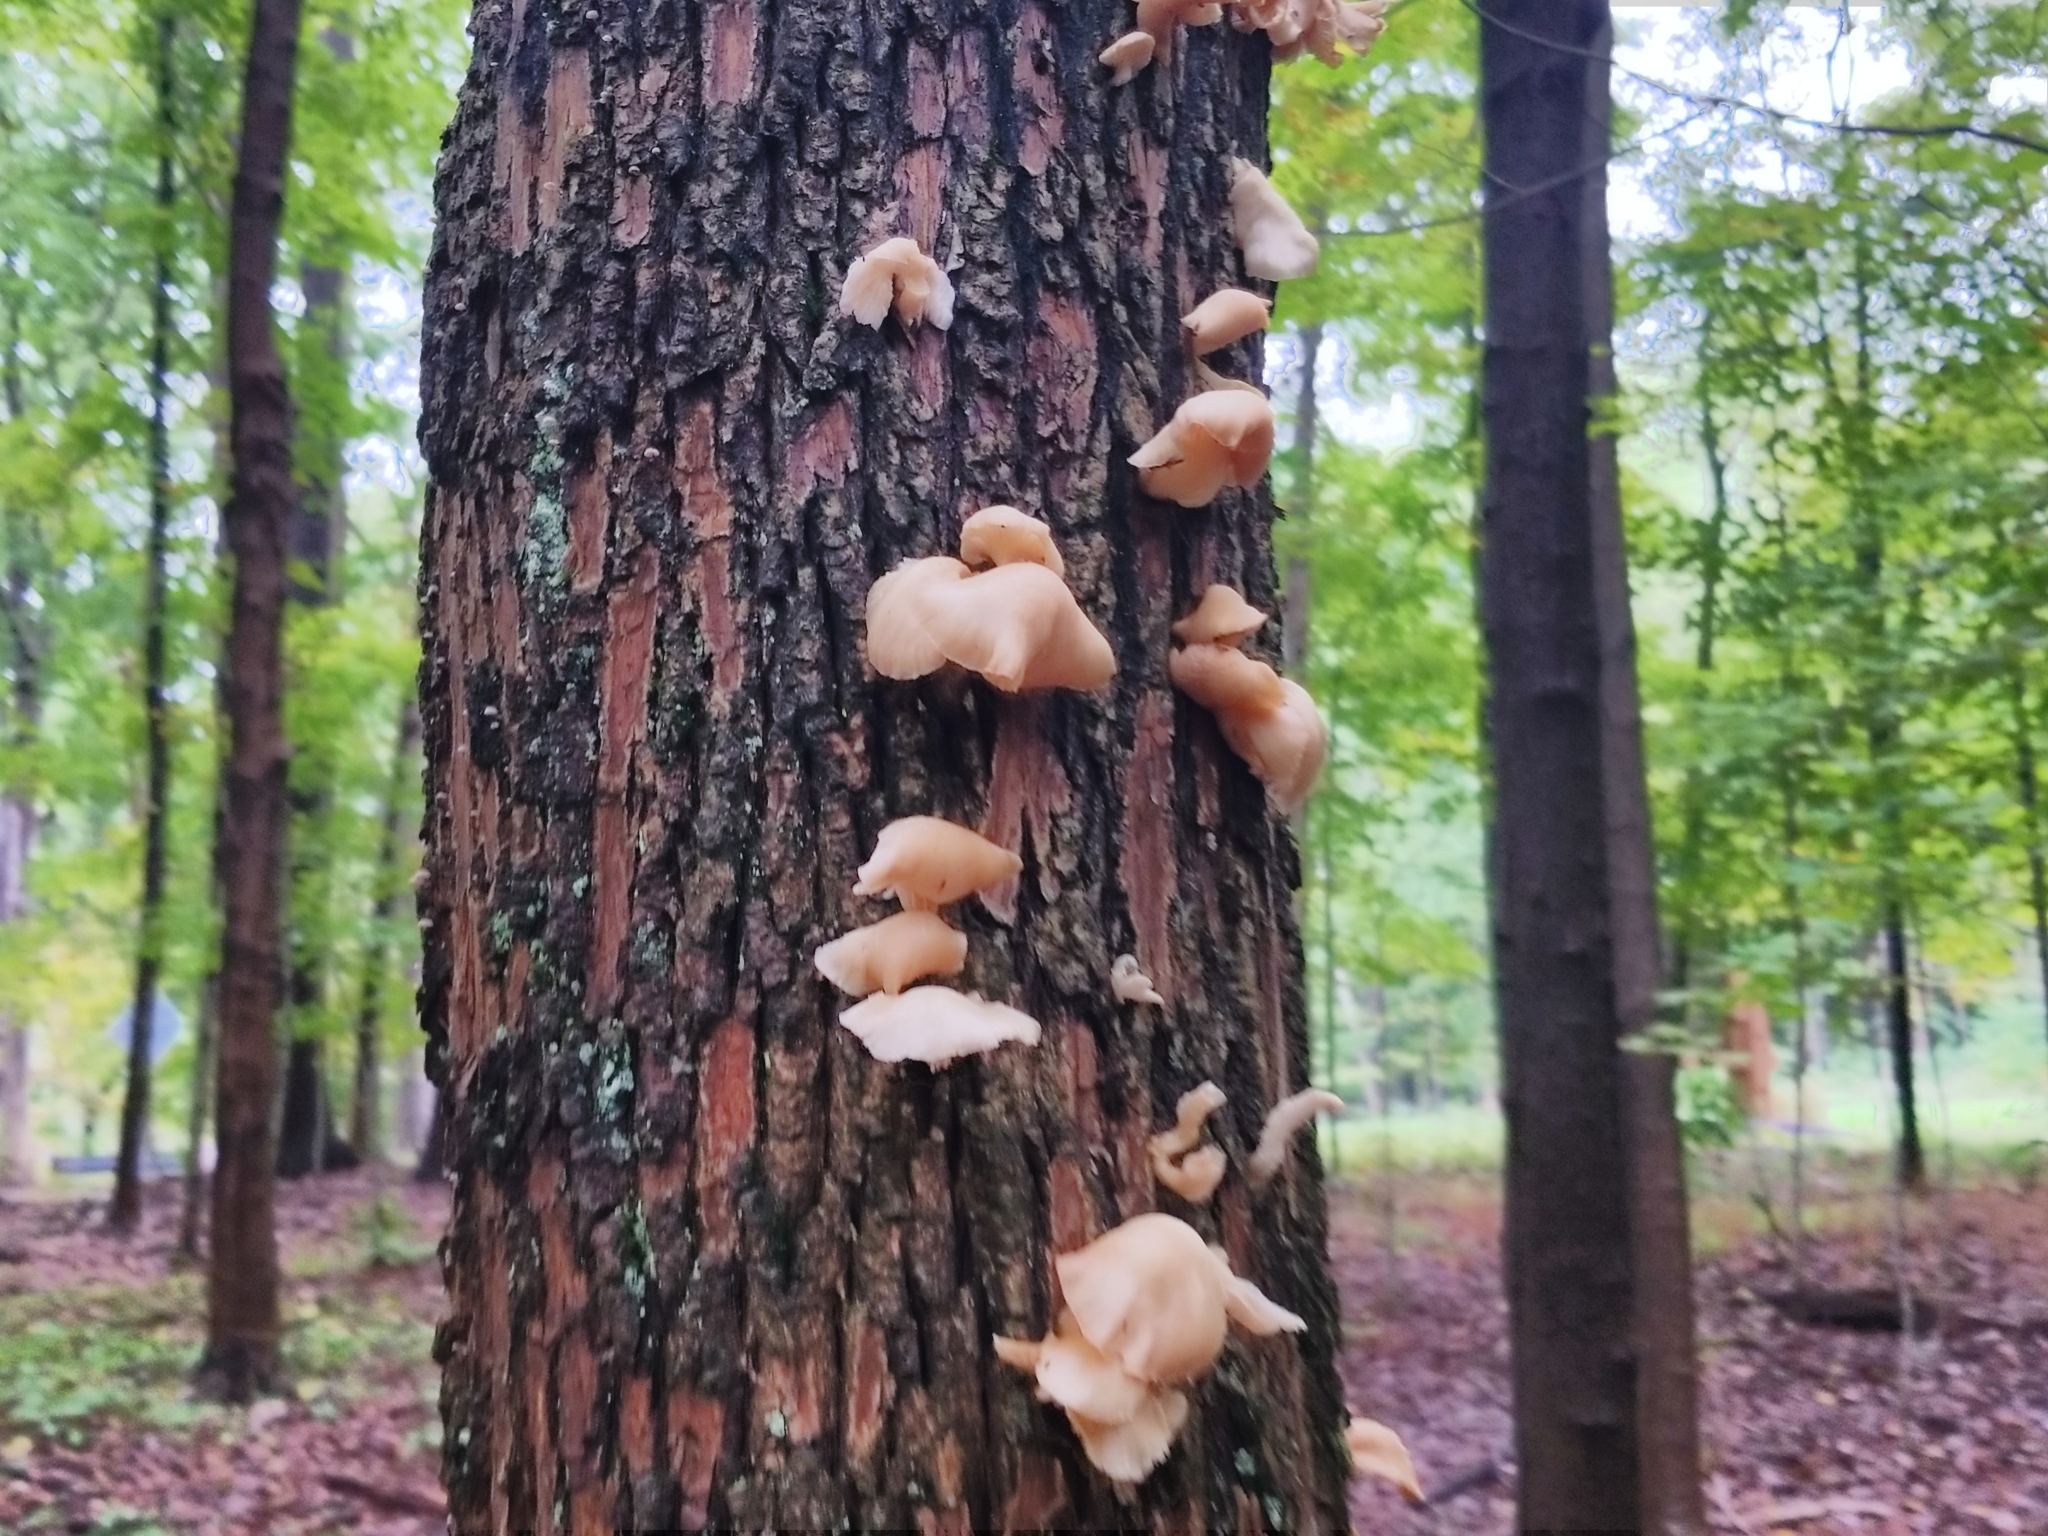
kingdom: Fungi
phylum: Basidiomycota
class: Agaricomycetes
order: Agaricales
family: Pleurotaceae
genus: Pleurotus
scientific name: Pleurotus ostreatus
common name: Oyster mushroom
